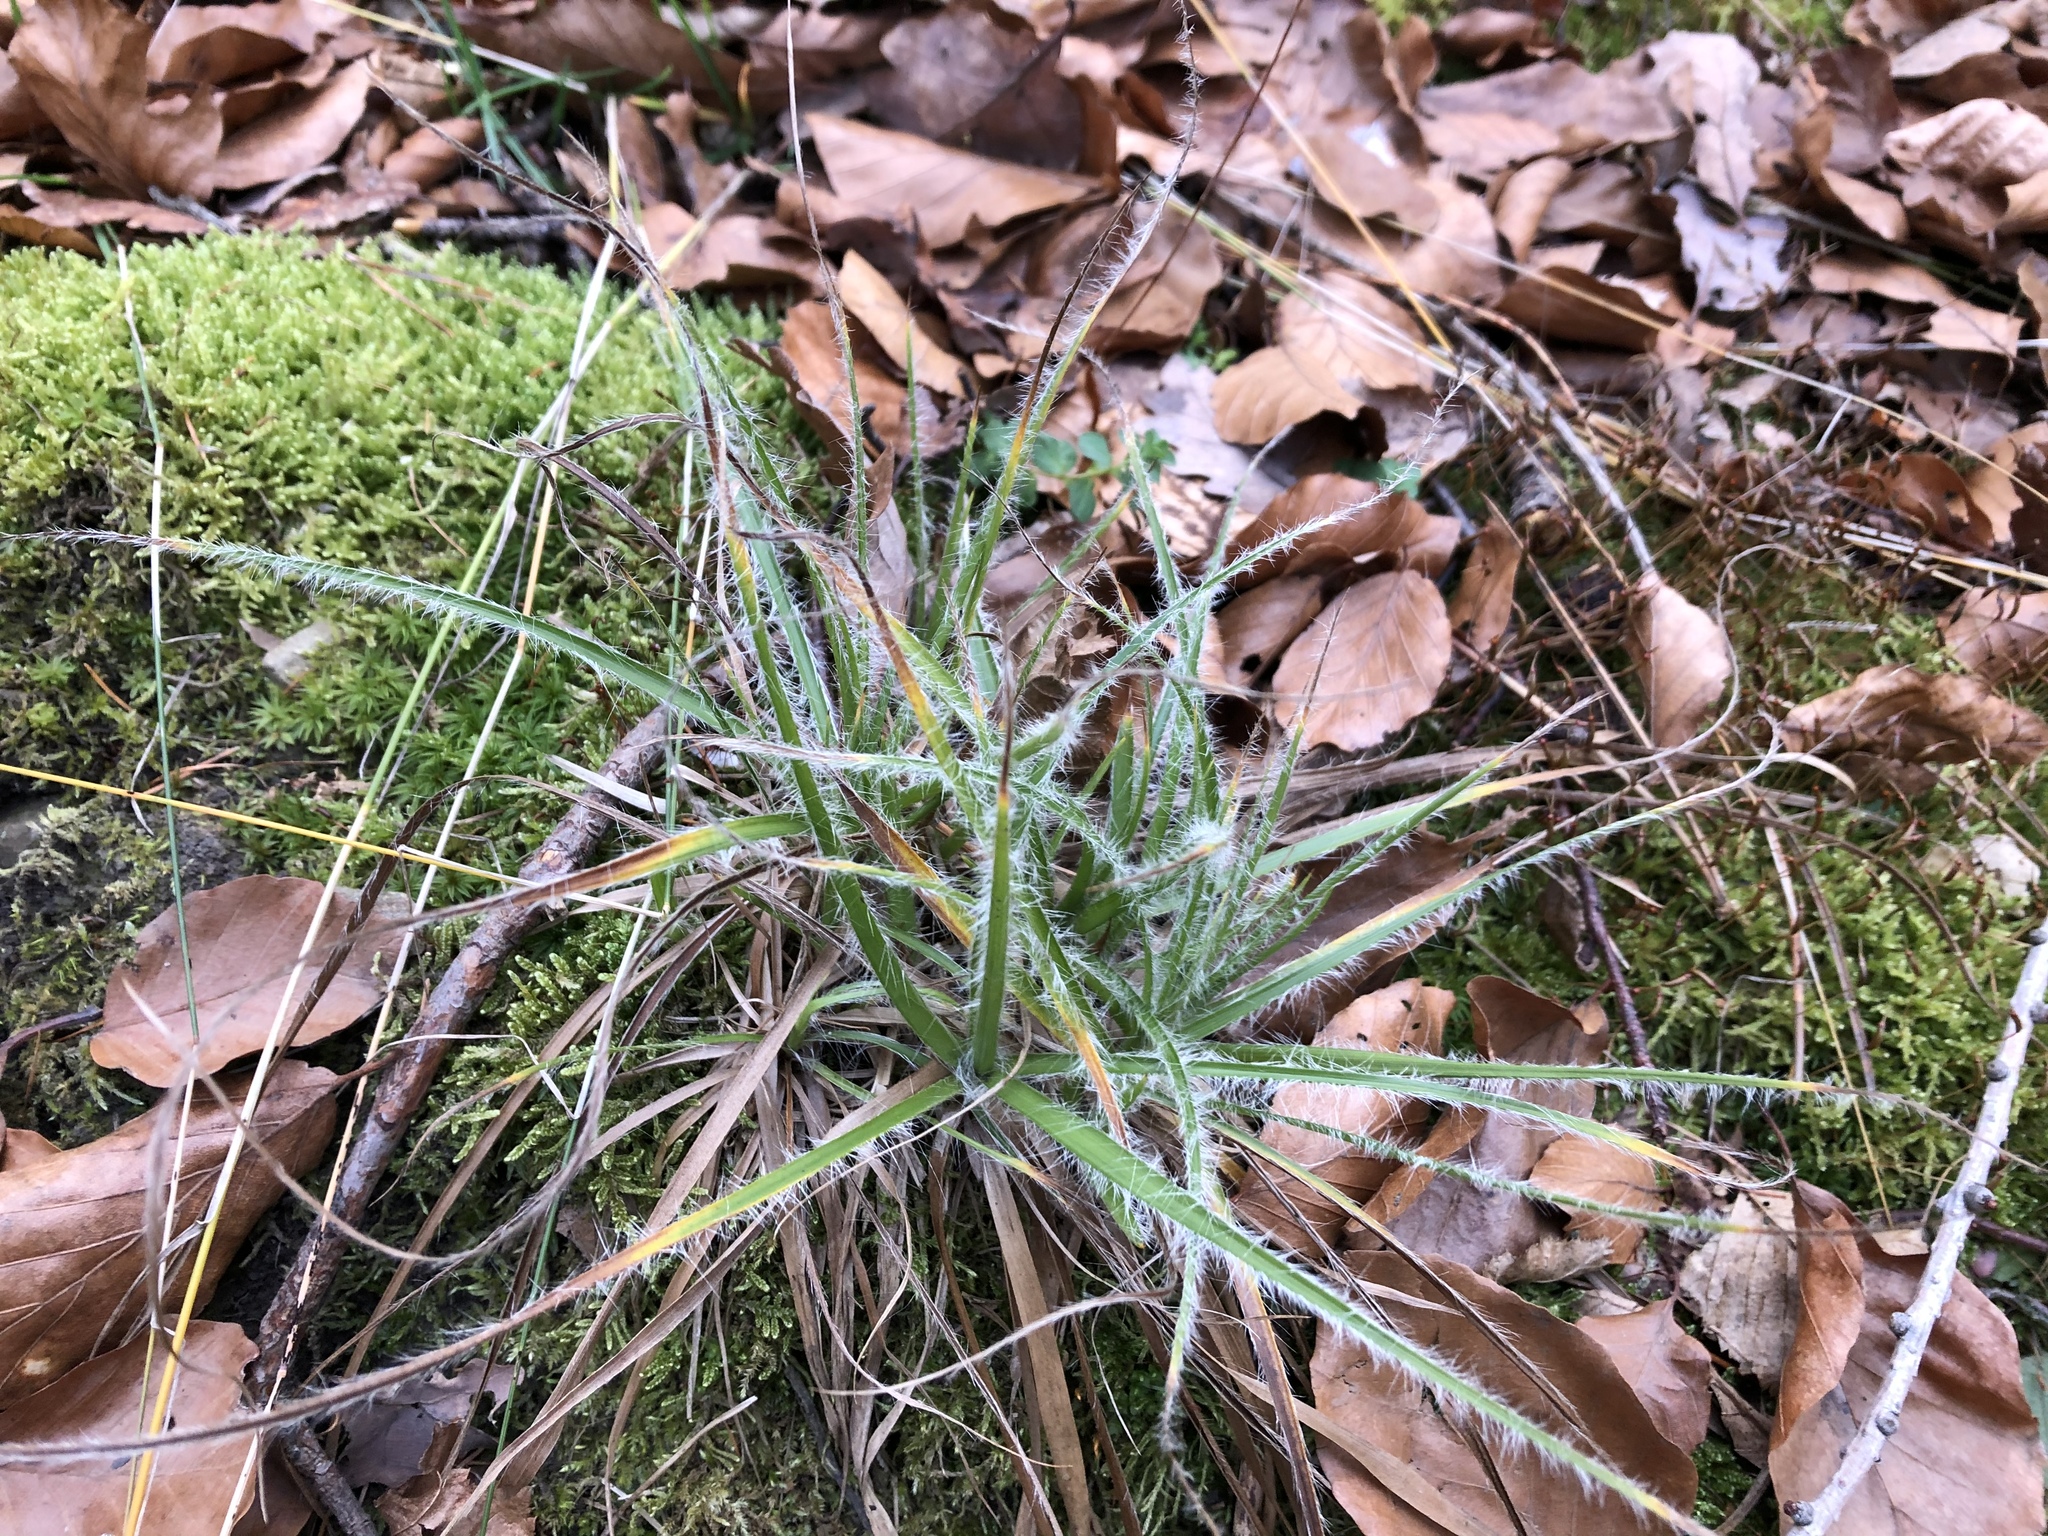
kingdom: Plantae
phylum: Tracheophyta
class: Liliopsida
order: Poales
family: Juncaceae
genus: Luzula
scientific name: Luzula luzuloides
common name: White wood-rush
